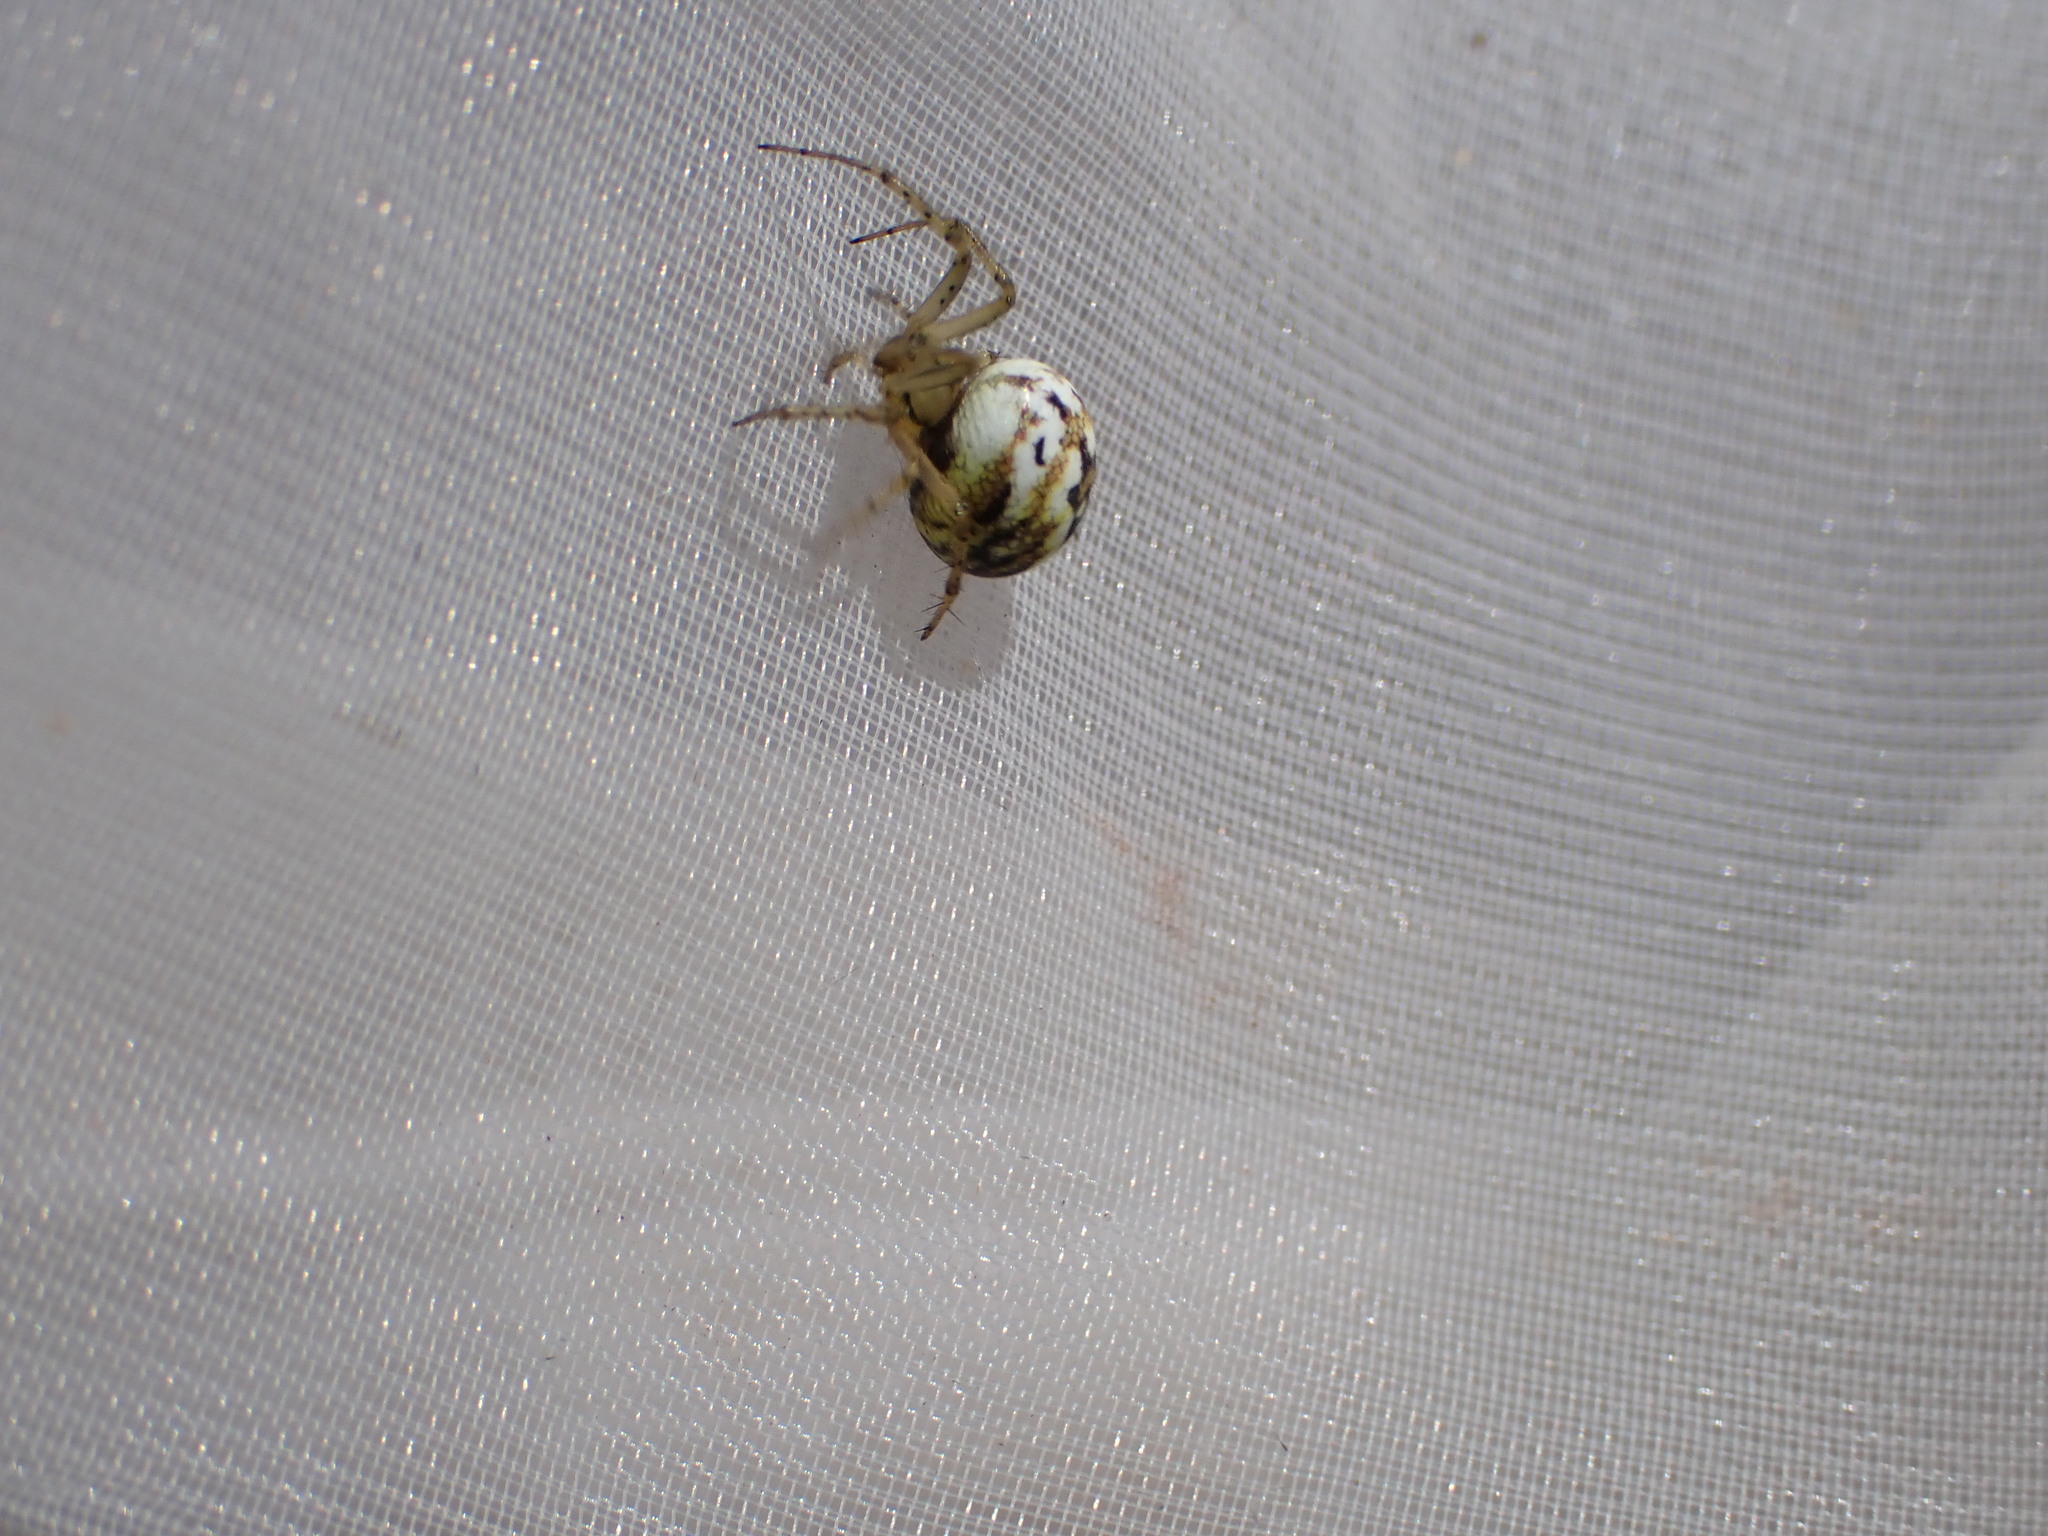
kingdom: Animalia
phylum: Arthropoda
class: Arachnida
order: Araneae
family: Araneidae
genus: Mangora
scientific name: Mangora acalypha
